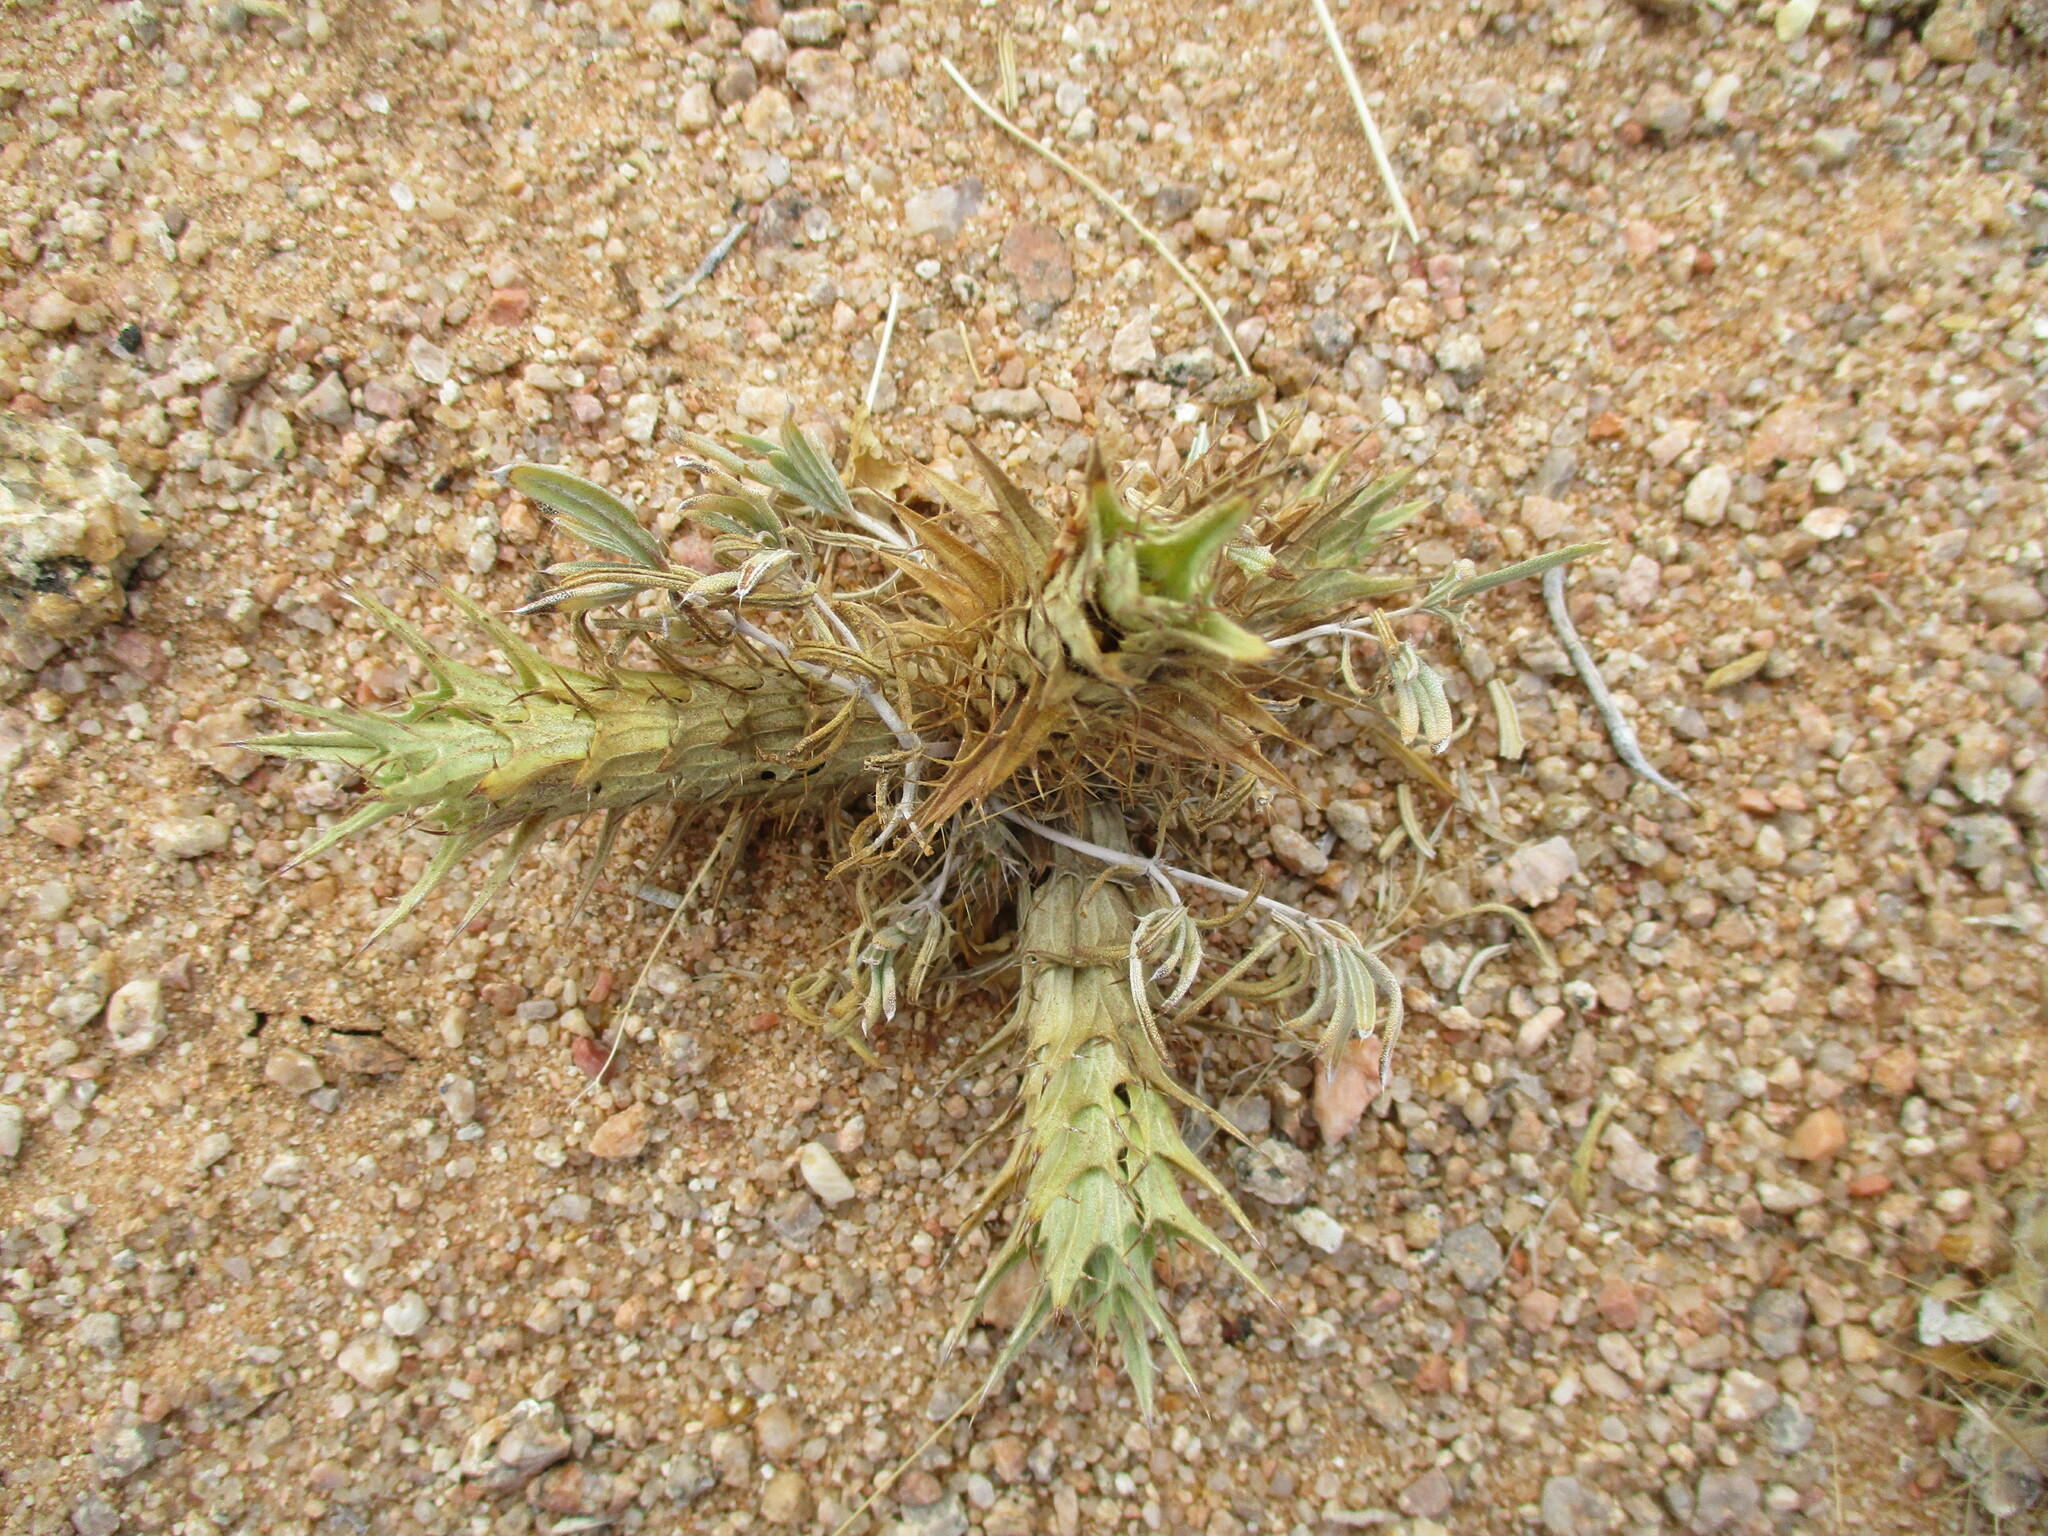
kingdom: Plantae
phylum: Tracheophyta
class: Magnoliopsida
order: Lamiales
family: Acanthaceae
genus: Blepharis
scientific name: Blepharis grossa
